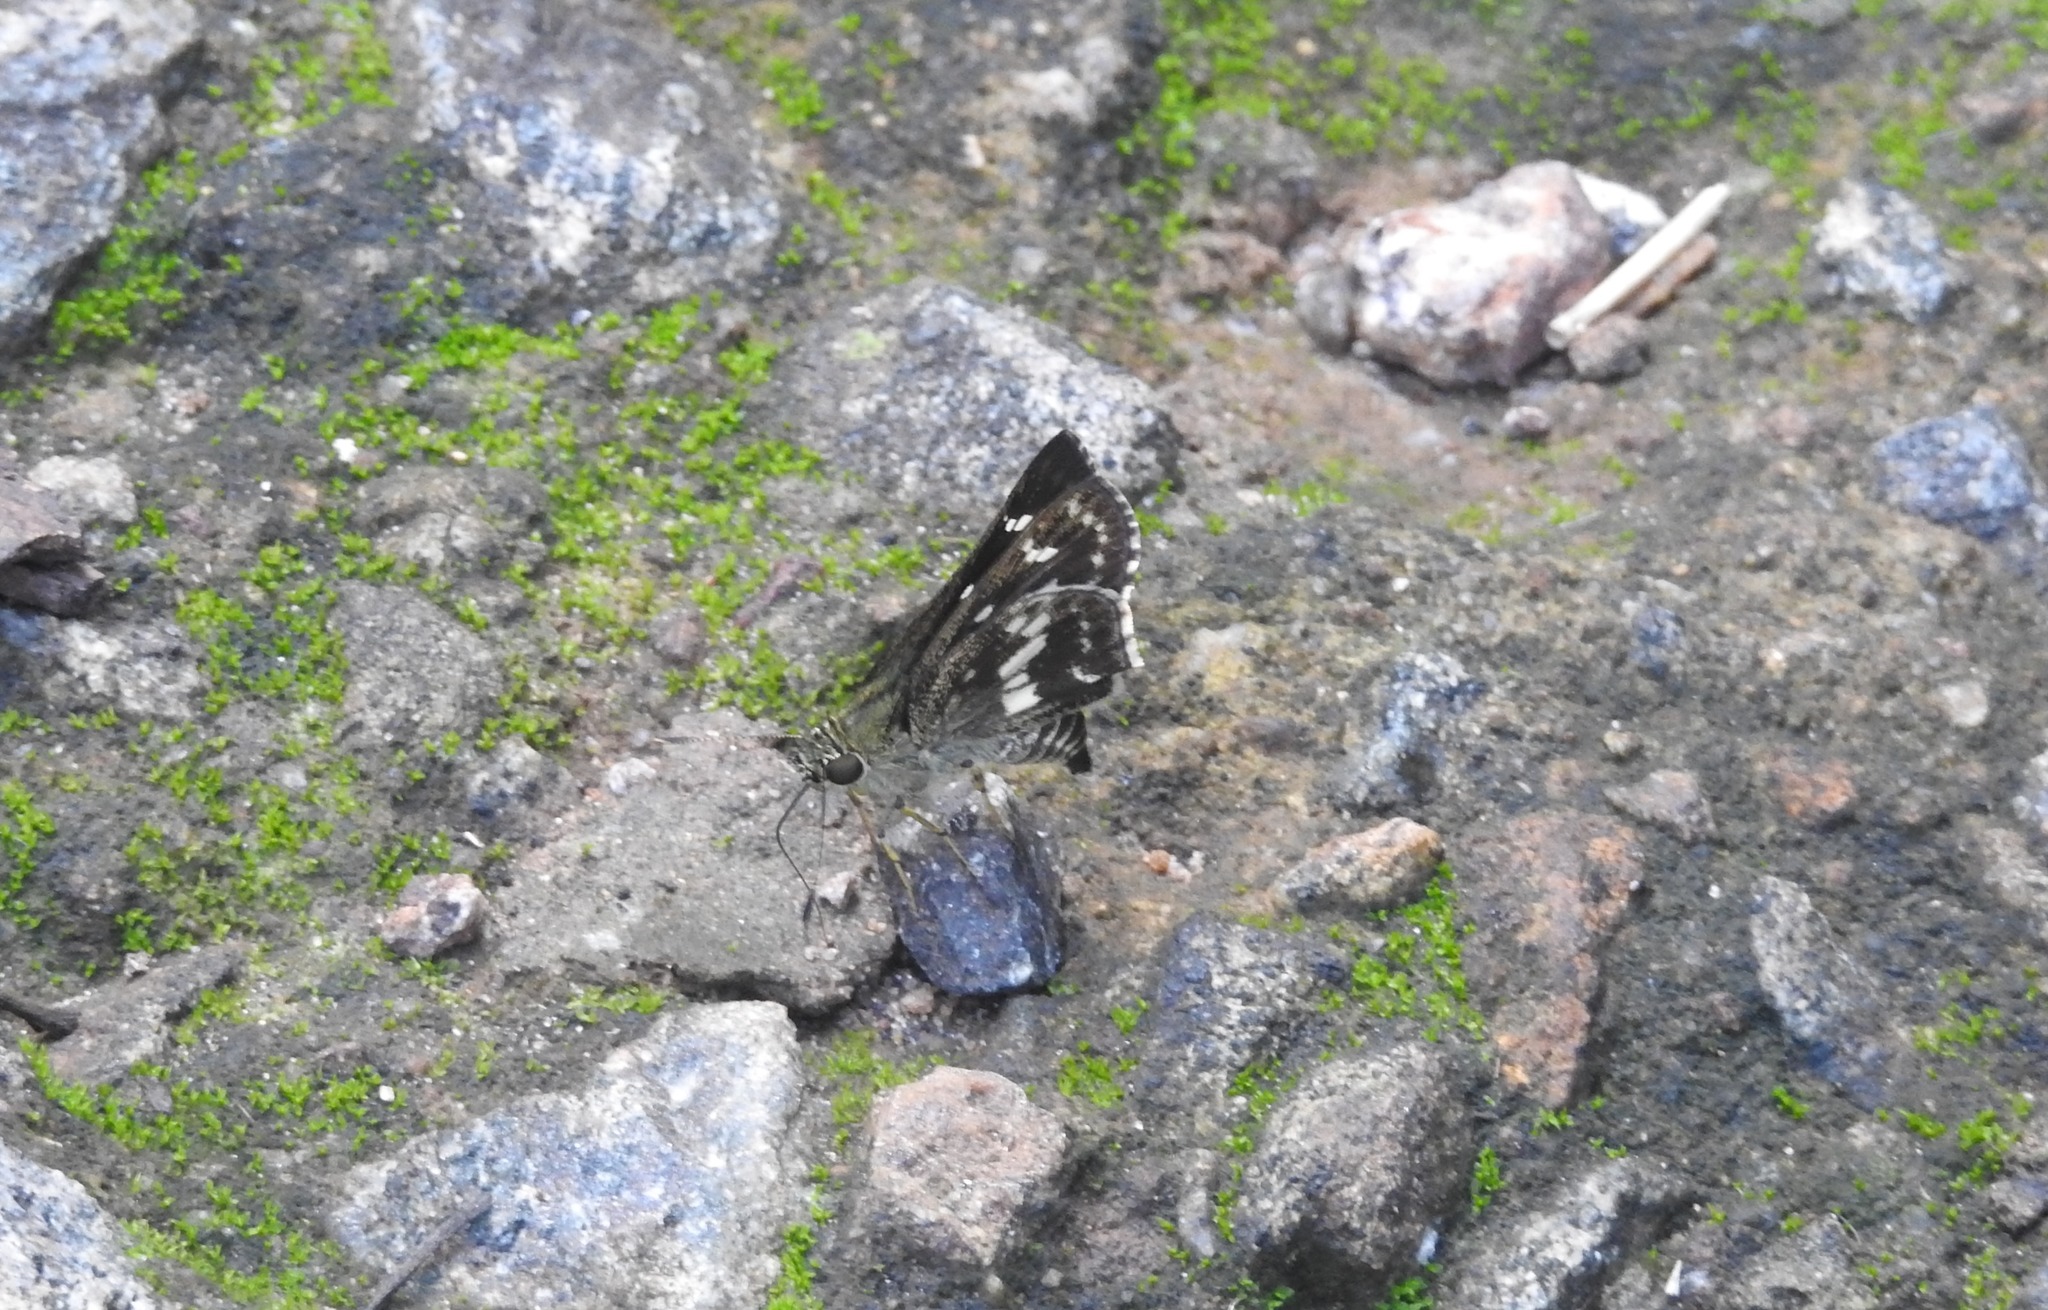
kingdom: Animalia
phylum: Arthropoda
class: Insecta
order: Lepidoptera
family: Hesperiidae
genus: Halpe
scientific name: Halpe porus
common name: Moore's ace
